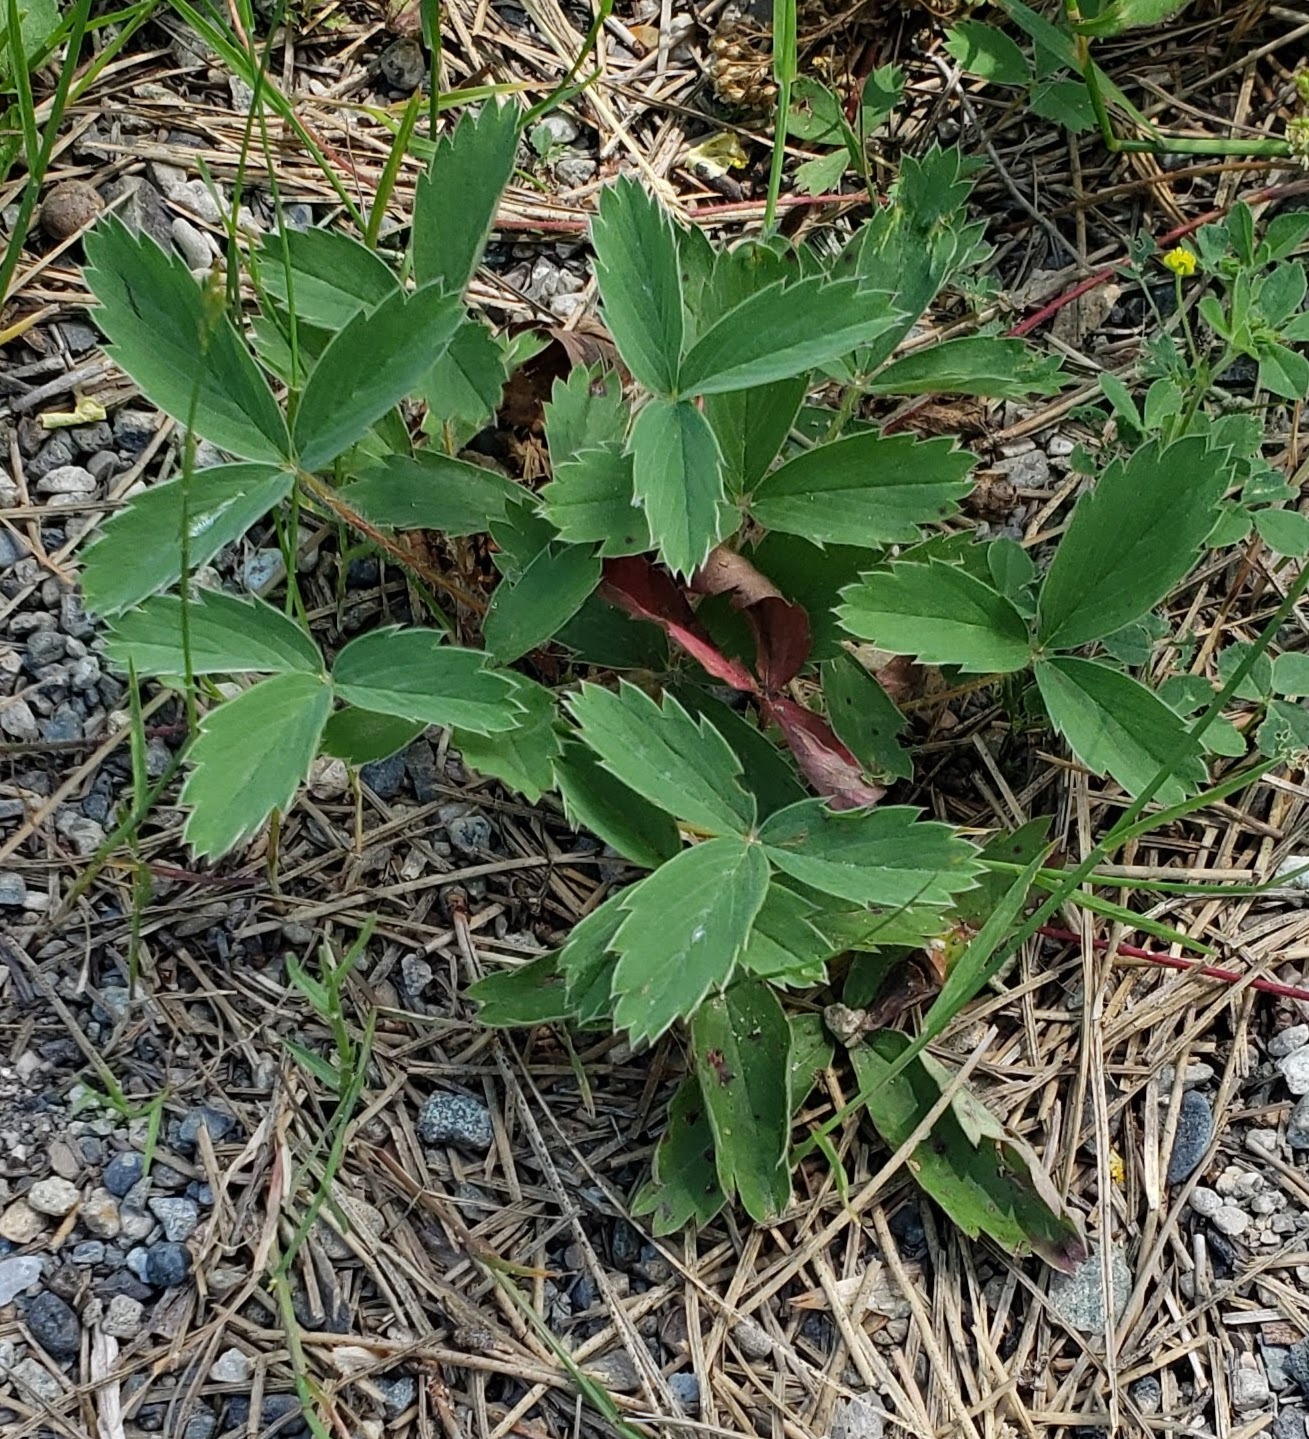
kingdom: Plantae
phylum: Tracheophyta
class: Magnoliopsida
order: Rosales
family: Rosaceae
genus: Fragaria
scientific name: Fragaria virginiana
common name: Thickleaved wild strawberry
